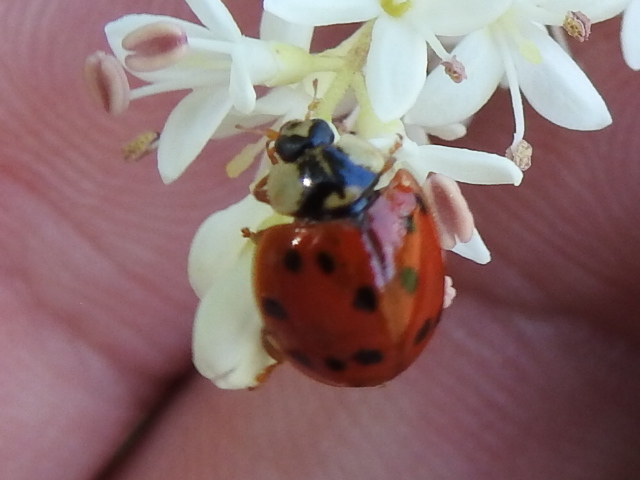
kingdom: Animalia
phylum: Arthropoda
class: Insecta
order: Coleoptera
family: Coccinellidae
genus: Harmonia
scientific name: Harmonia axyridis
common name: Harlequin ladybird
